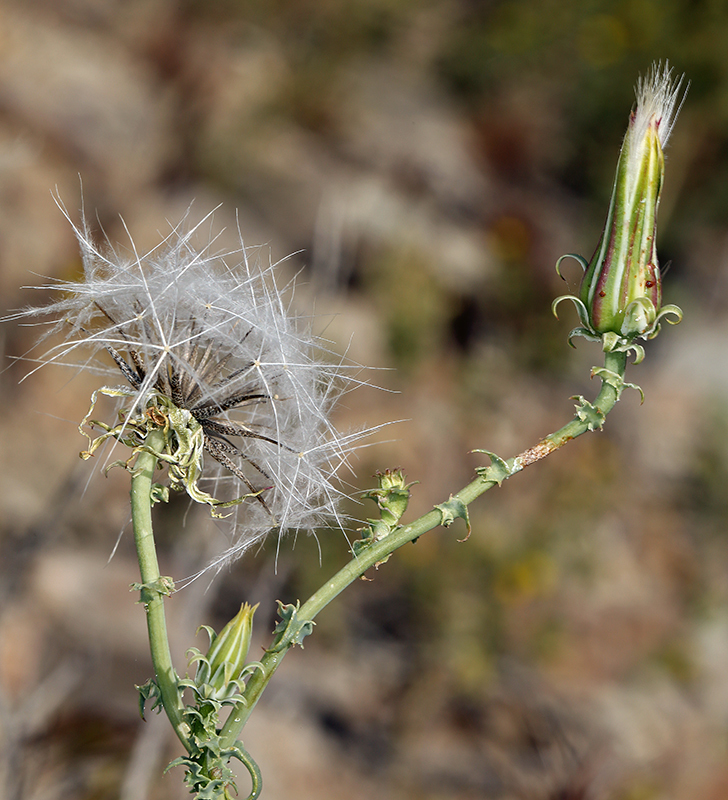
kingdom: Plantae
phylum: Tracheophyta
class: Magnoliopsida
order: Asterales
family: Asteraceae
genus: Rafinesquia
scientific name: Rafinesquia neomexicana
